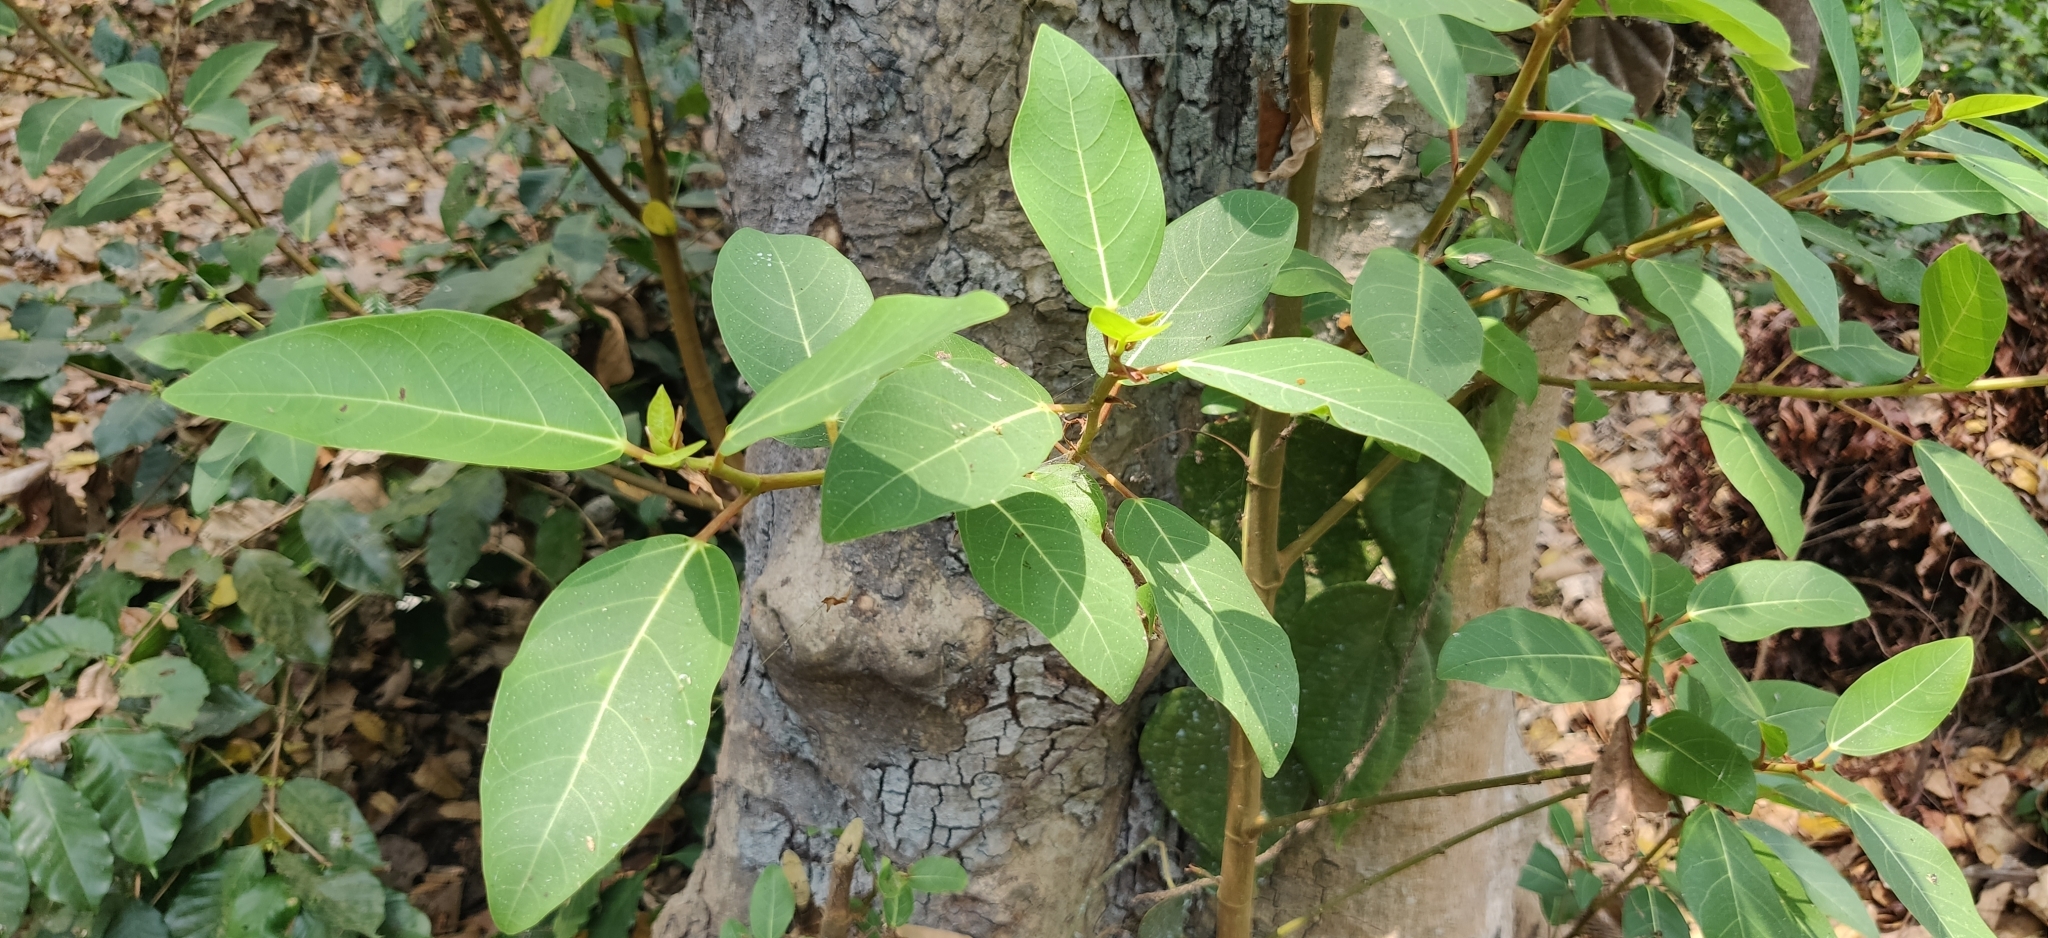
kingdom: Plantae
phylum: Tracheophyta
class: Magnoliopsida
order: Rosales
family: Moraceae
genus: Ficus
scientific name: Ficus racemosa
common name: Cluster fig
